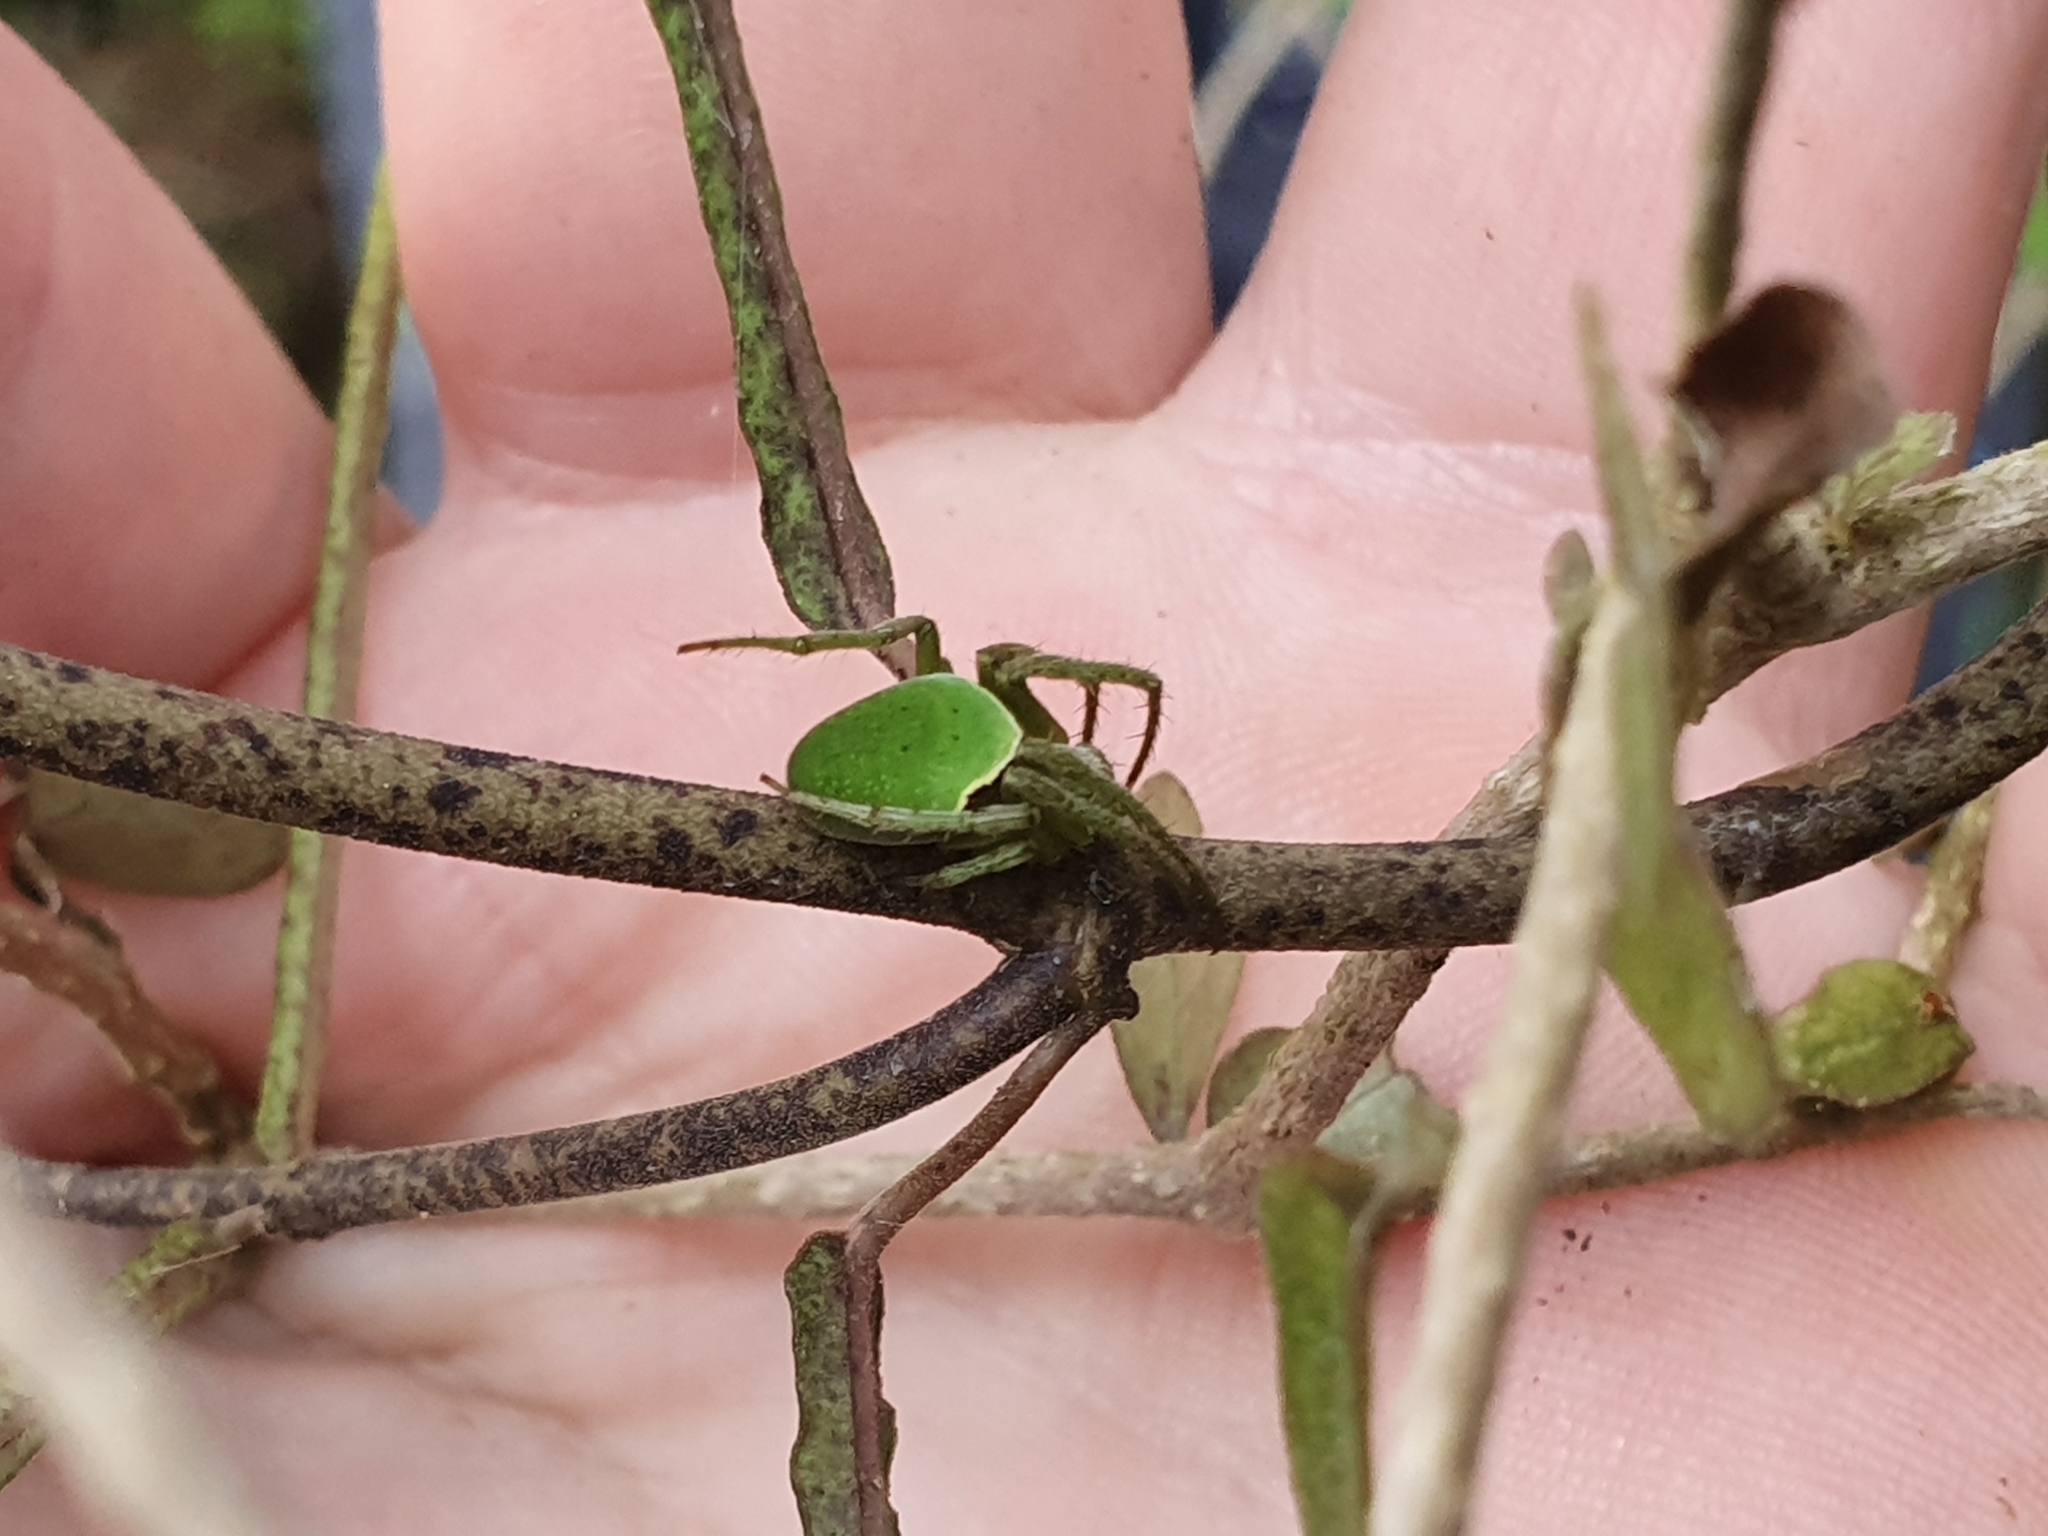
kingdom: Animalia
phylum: Arthropoda
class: Arachnida
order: Araneae
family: Araneidae
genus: Colaranea
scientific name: Colaranea viriditas
